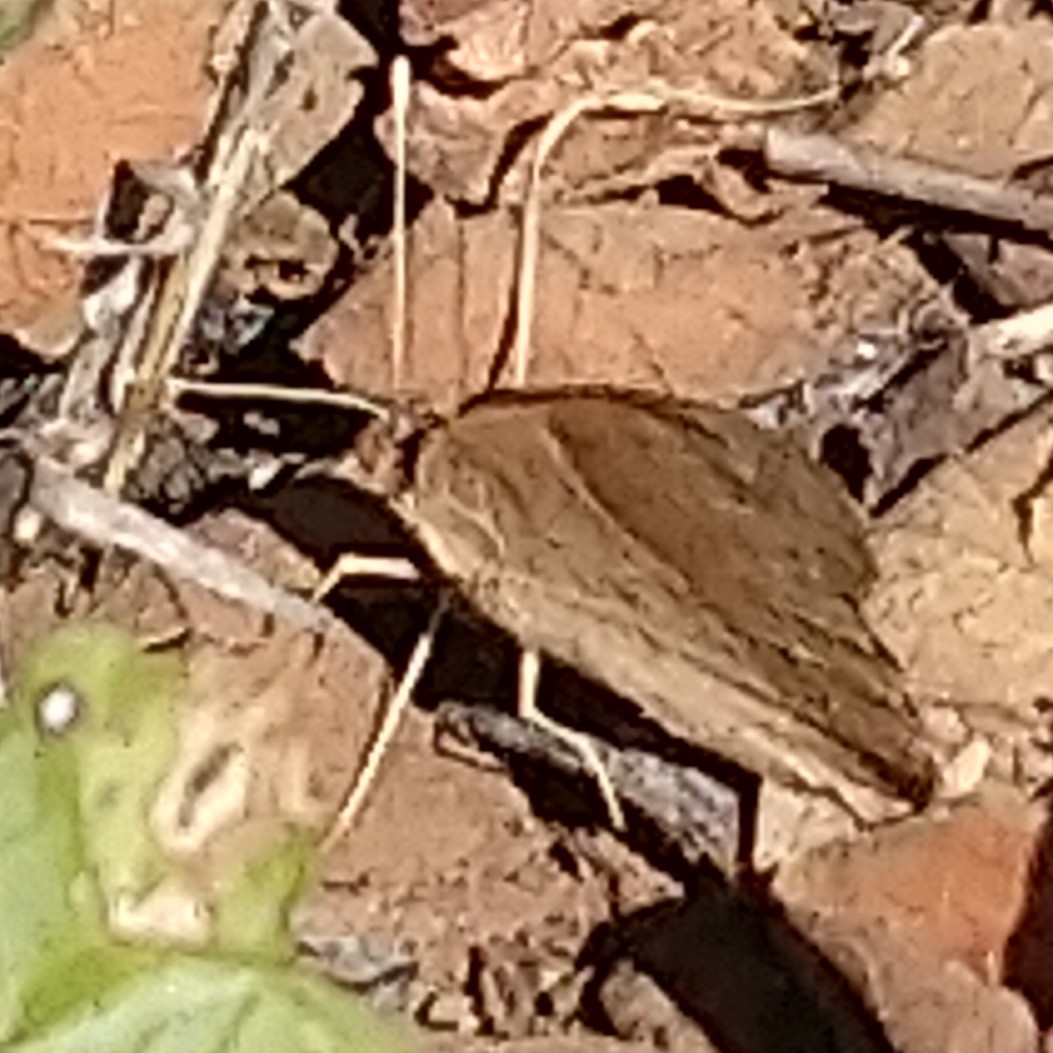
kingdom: Animalia
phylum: Arthropoda
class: Insecta
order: Lepidoptera
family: Nymphalidae
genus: Junonia
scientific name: Junonia oenone
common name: Dark blue pansy
